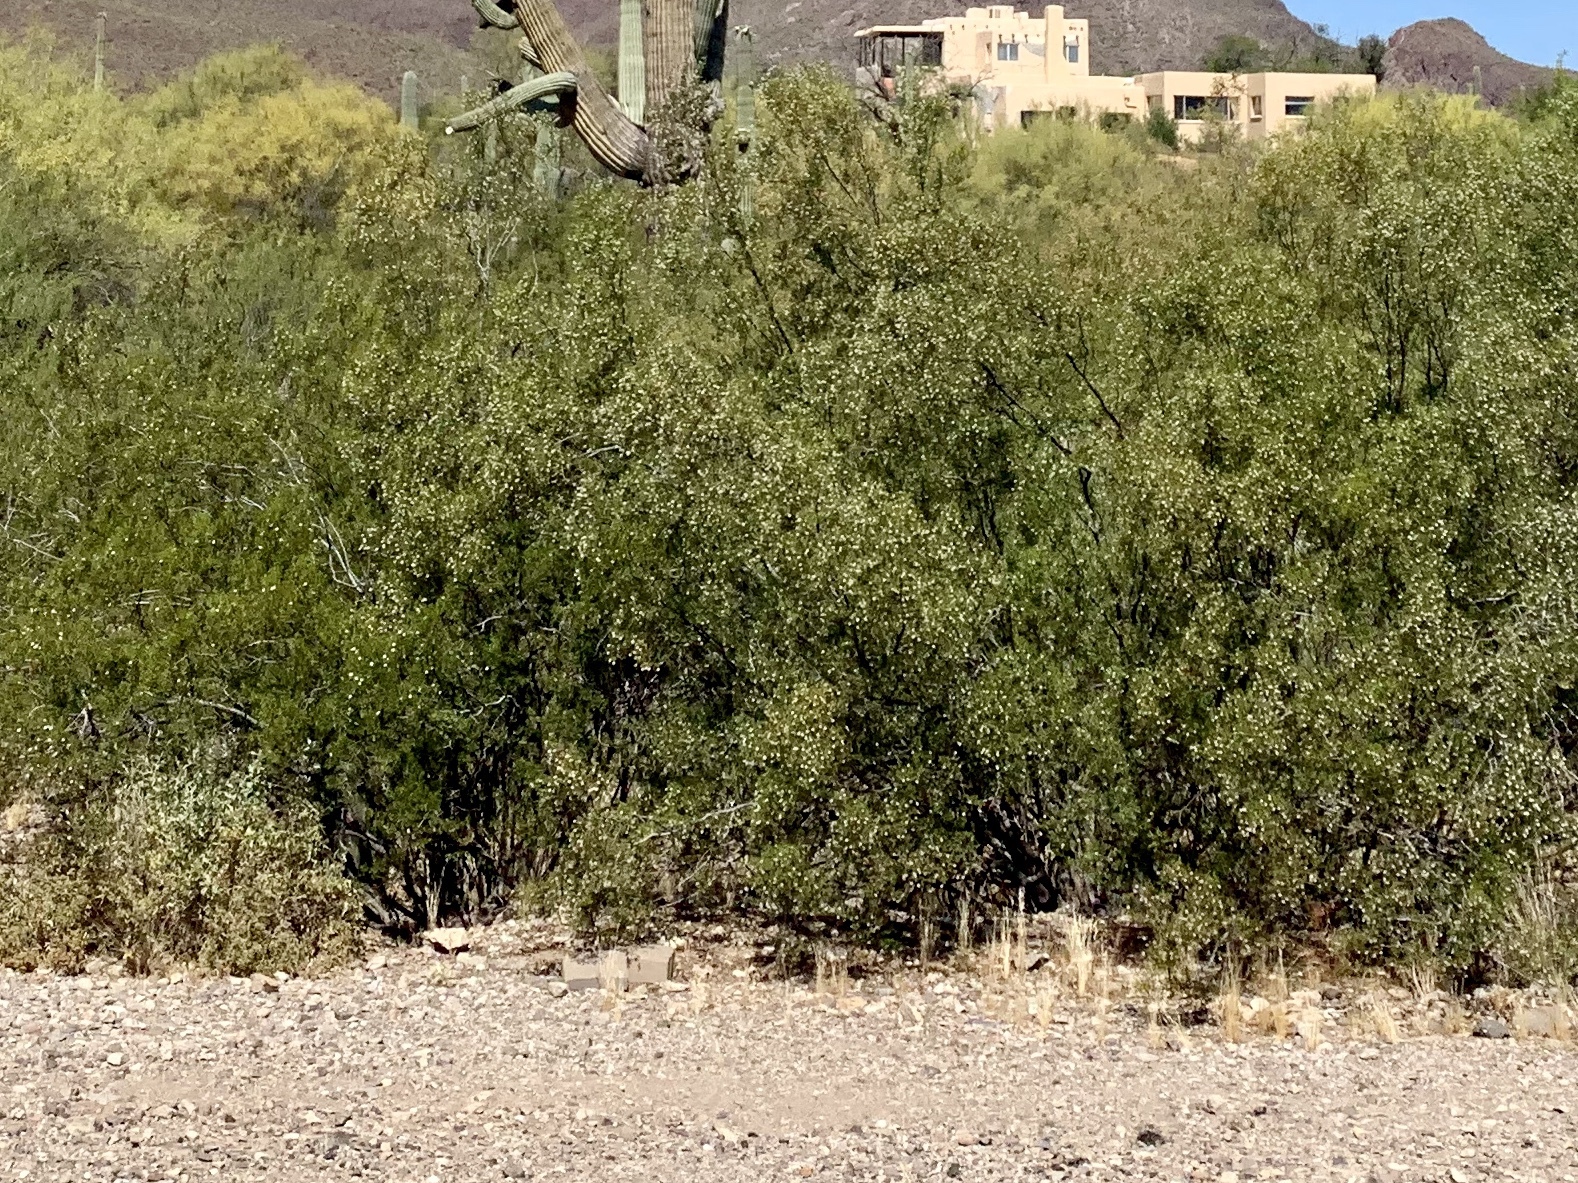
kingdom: Plantae
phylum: Tracheophyta
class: Magnoliopsida
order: Zygophyllales
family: Zygophyllaceae
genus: Larrea
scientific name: Larrea tridentata
